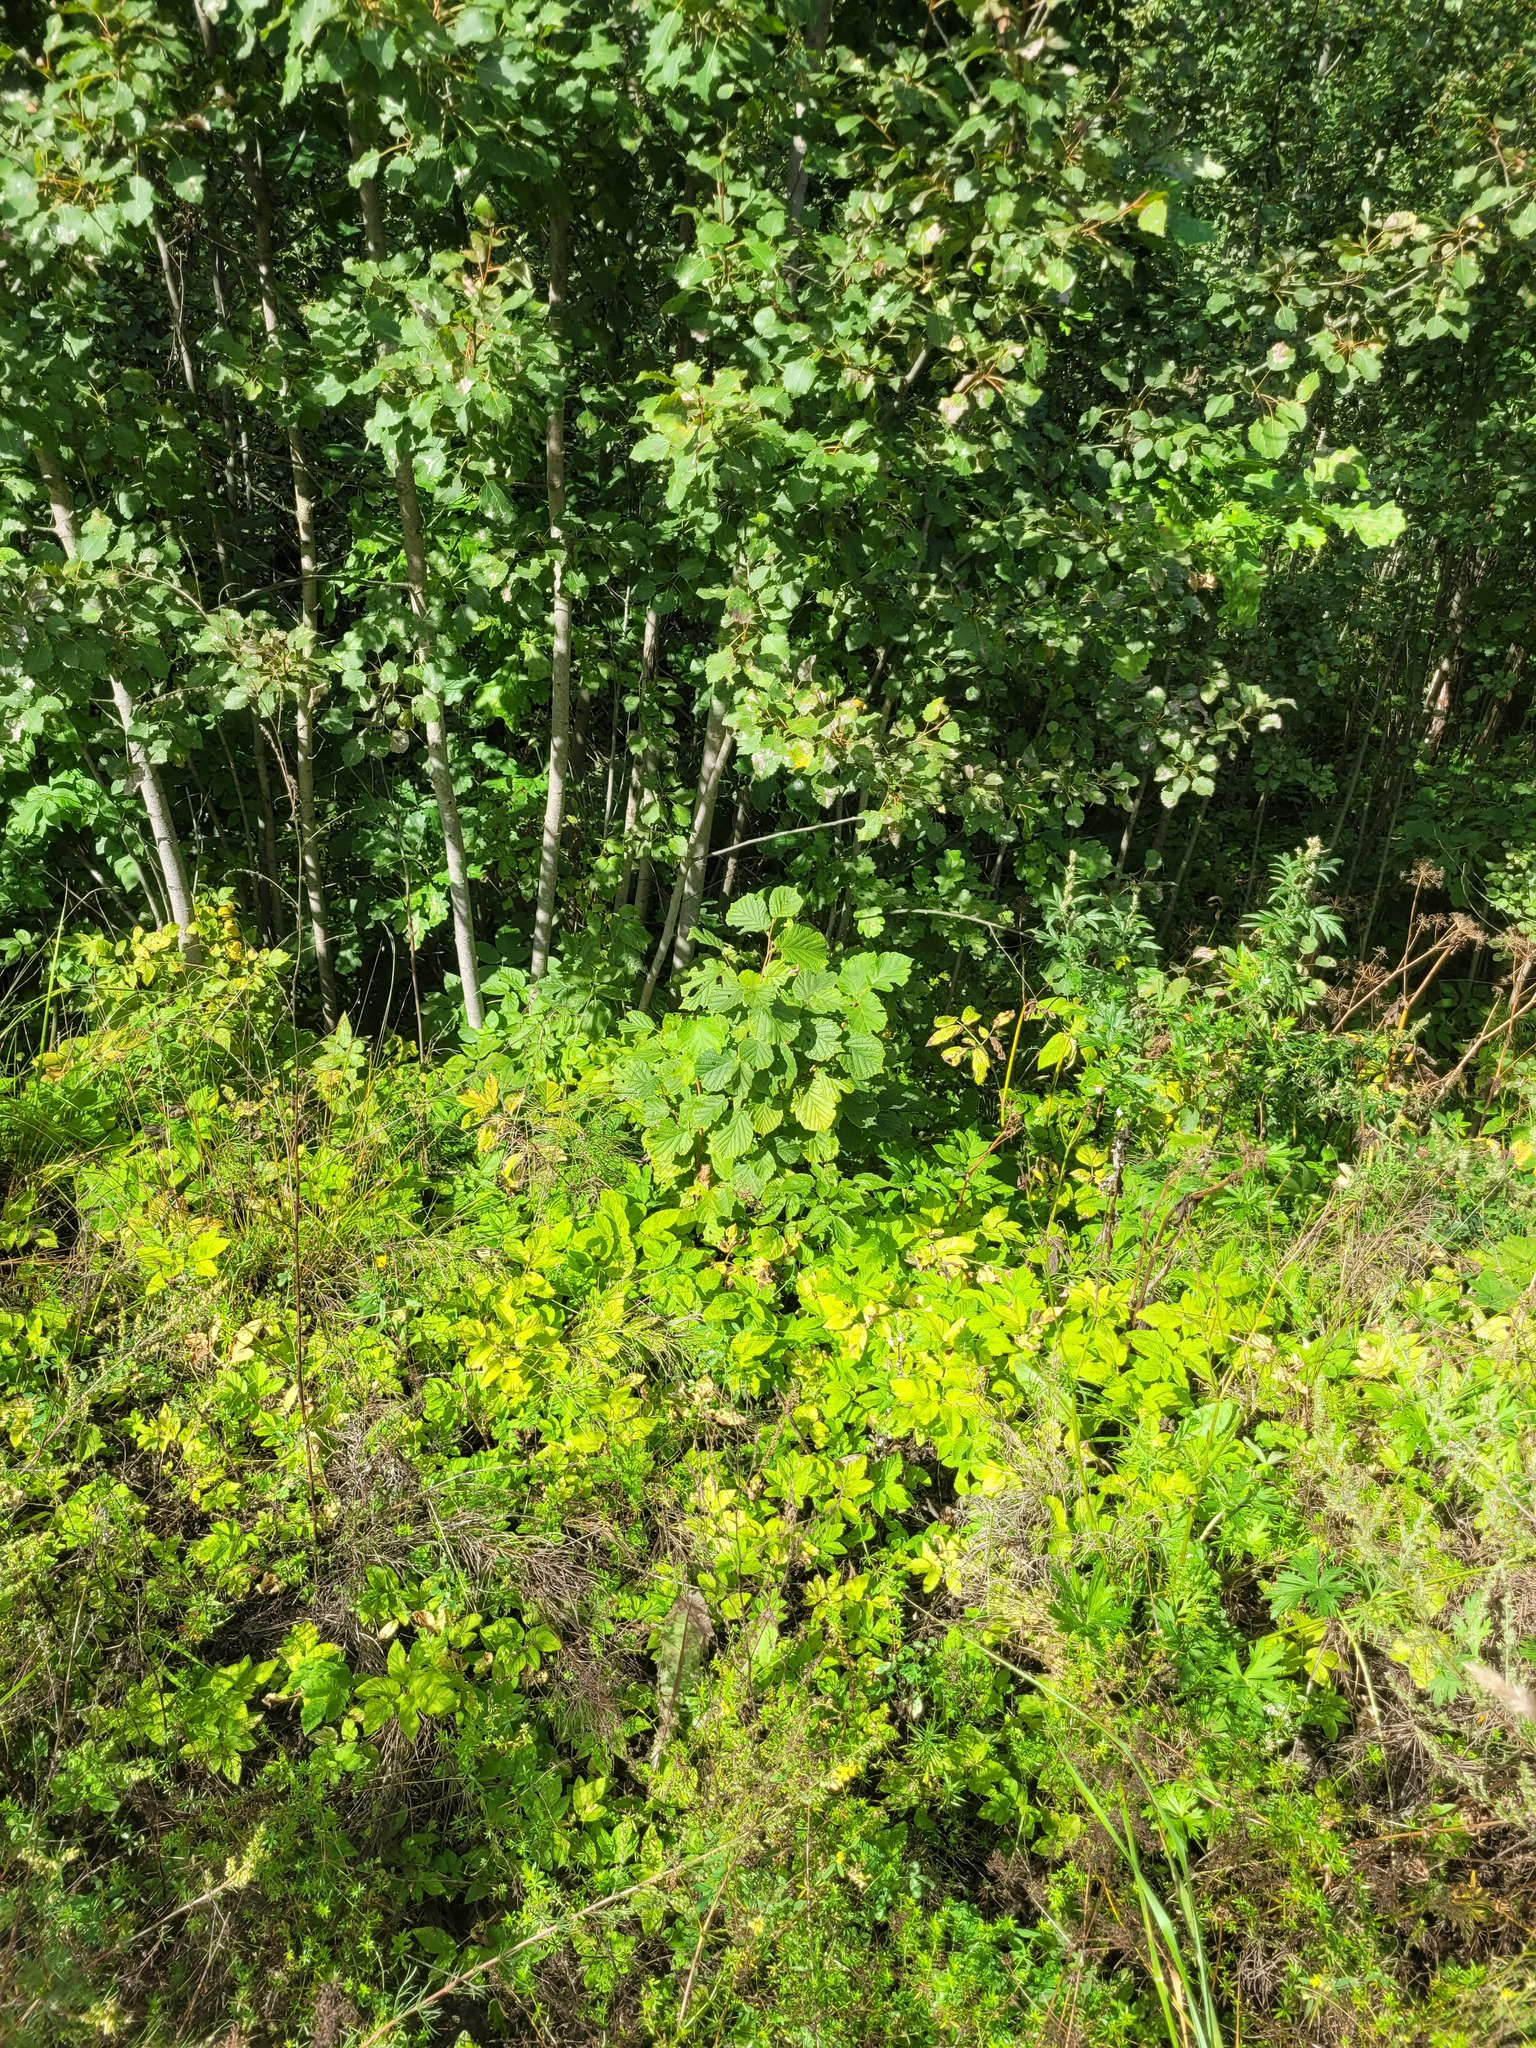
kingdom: Plantae
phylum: Tracheophyta
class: Magnoliopsida
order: Apiales
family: Apiaceae
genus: Aegopodium
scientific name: Aegopodium podagraria
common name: Ground-elder
